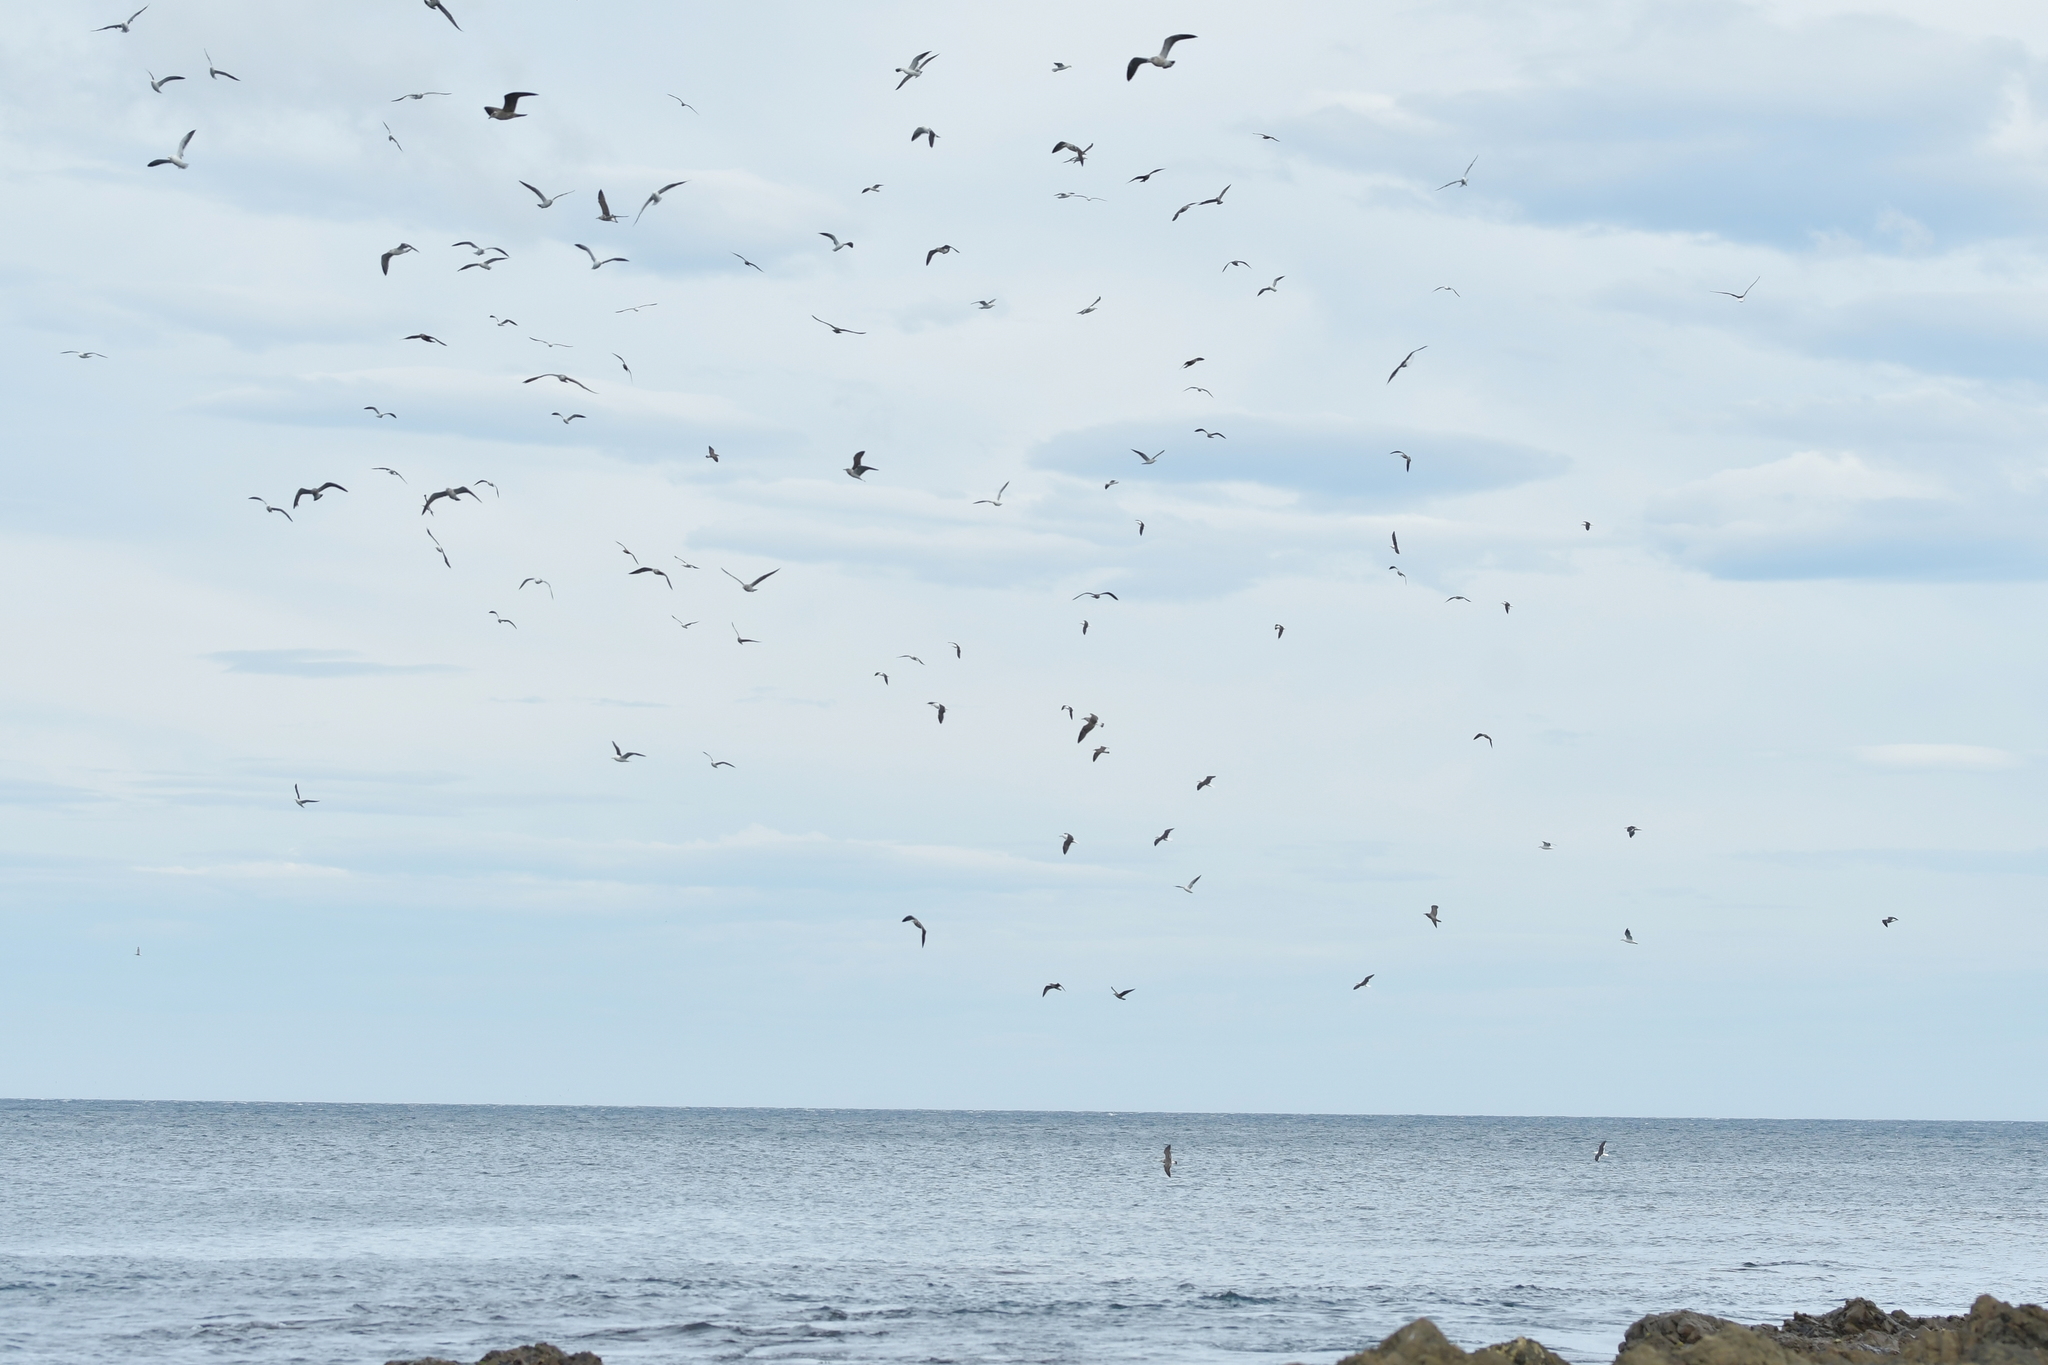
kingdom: Animalia
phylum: Chordata
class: Aves
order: Charadriiformes
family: Laridae
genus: Larus
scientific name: Larus dominicanus
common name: Kelp gull
